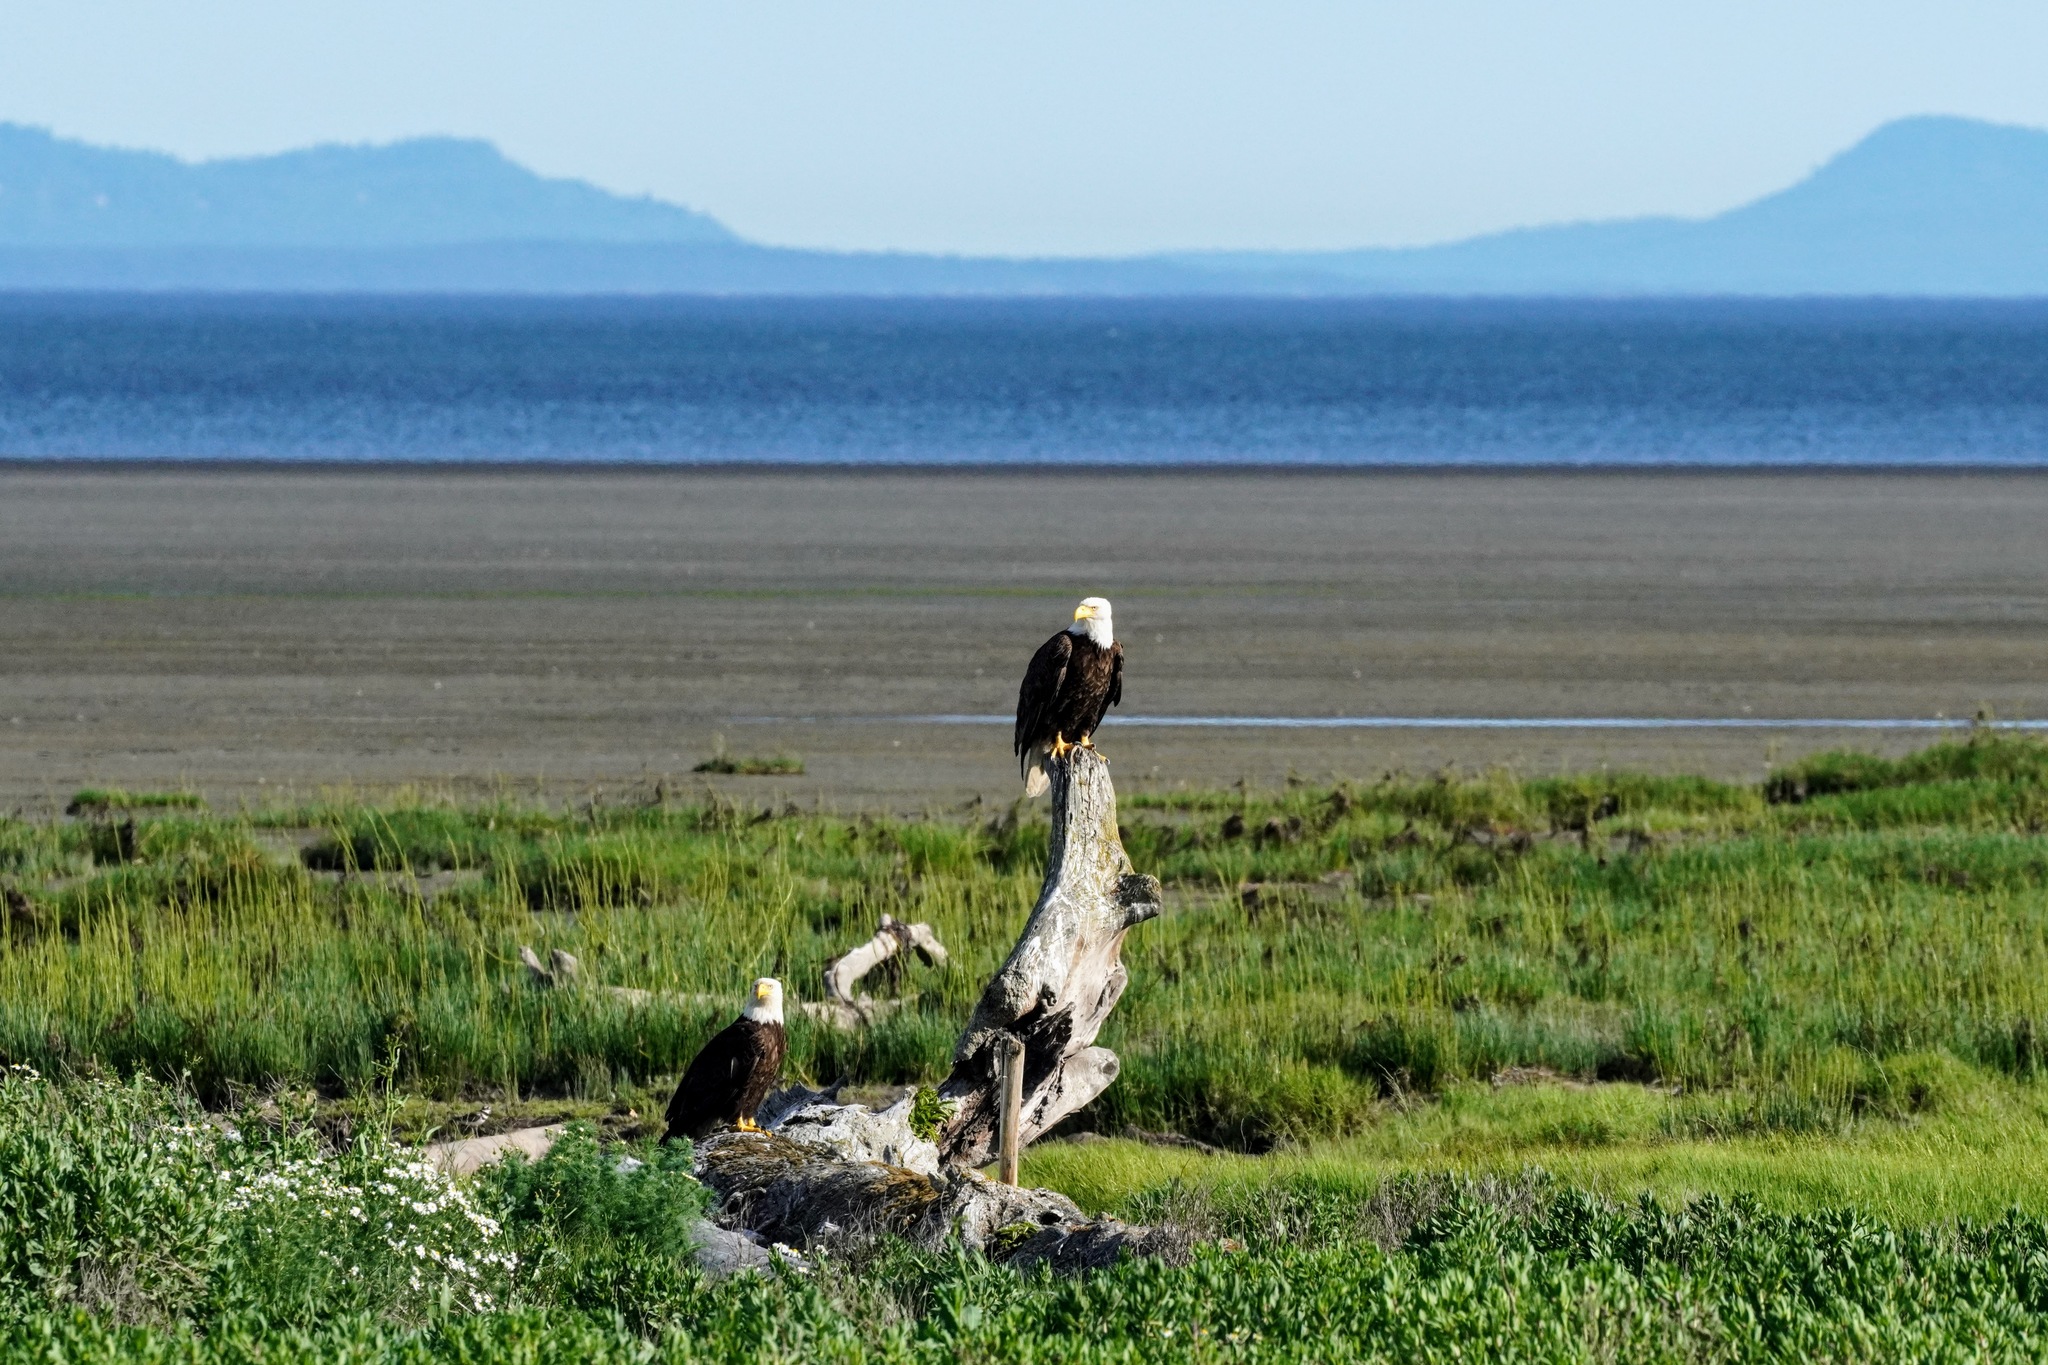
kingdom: Animalia
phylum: Chordata
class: Aves
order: Accipitriformes
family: Accipitridae
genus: Haliaeetus
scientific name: Haliaeetus leucocephalus
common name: Bald eagle
